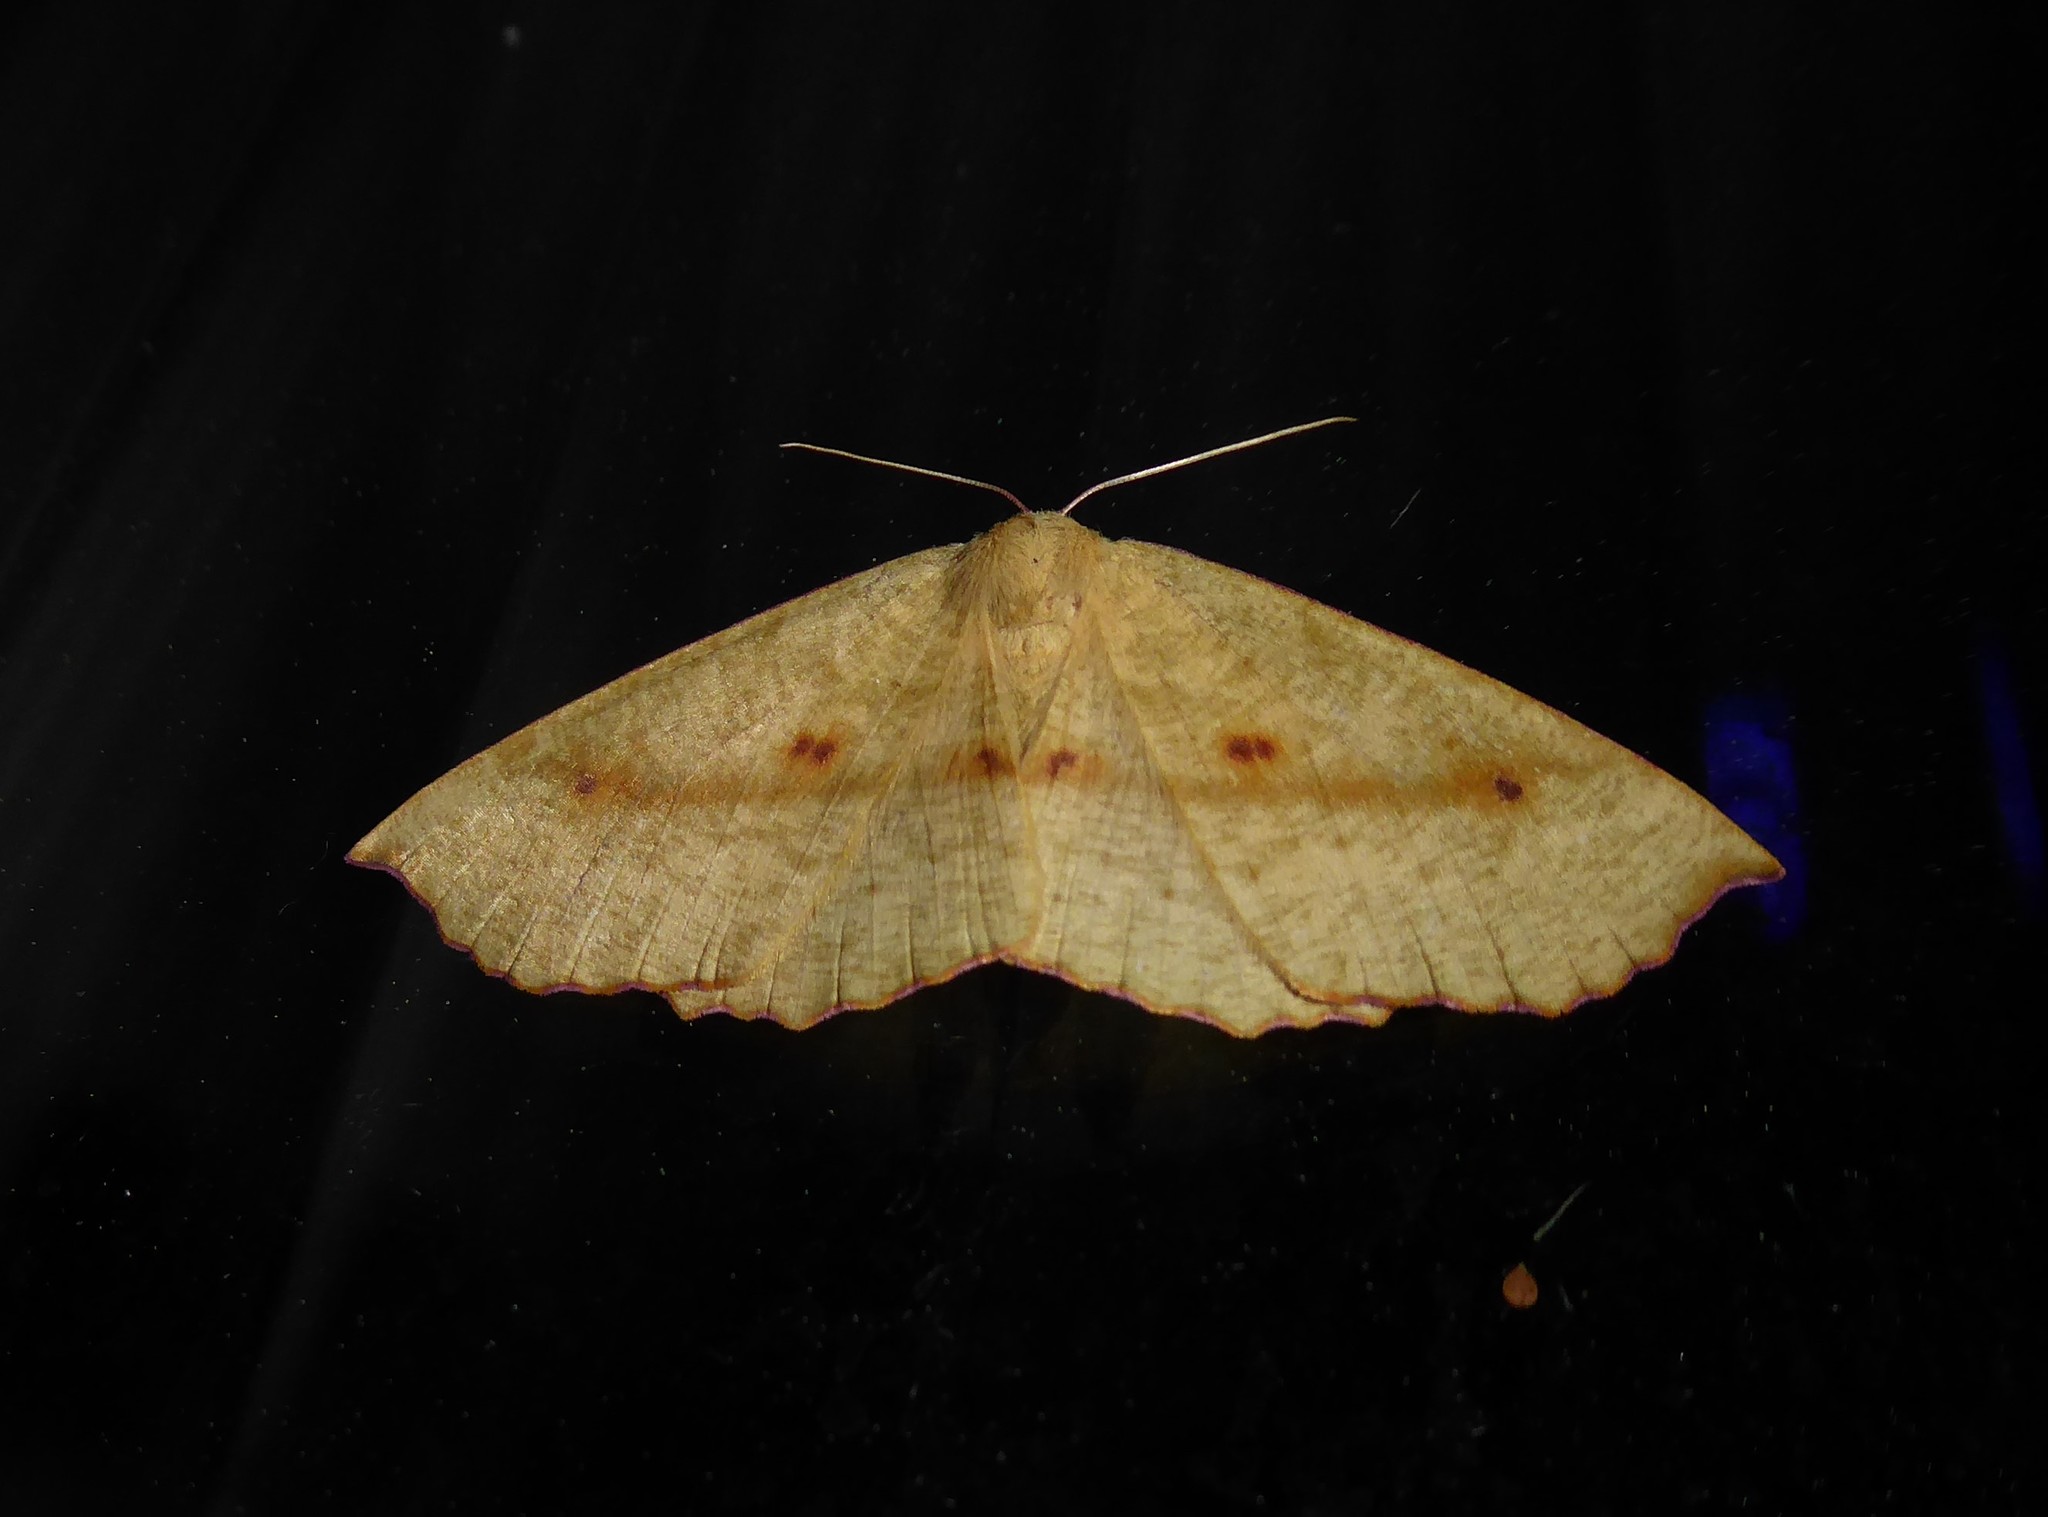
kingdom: Animalia
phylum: Arthropoda
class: Insecta
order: Lepidoptera
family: Geometridae
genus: Xyridacma
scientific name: Xyridacma alectoraria
